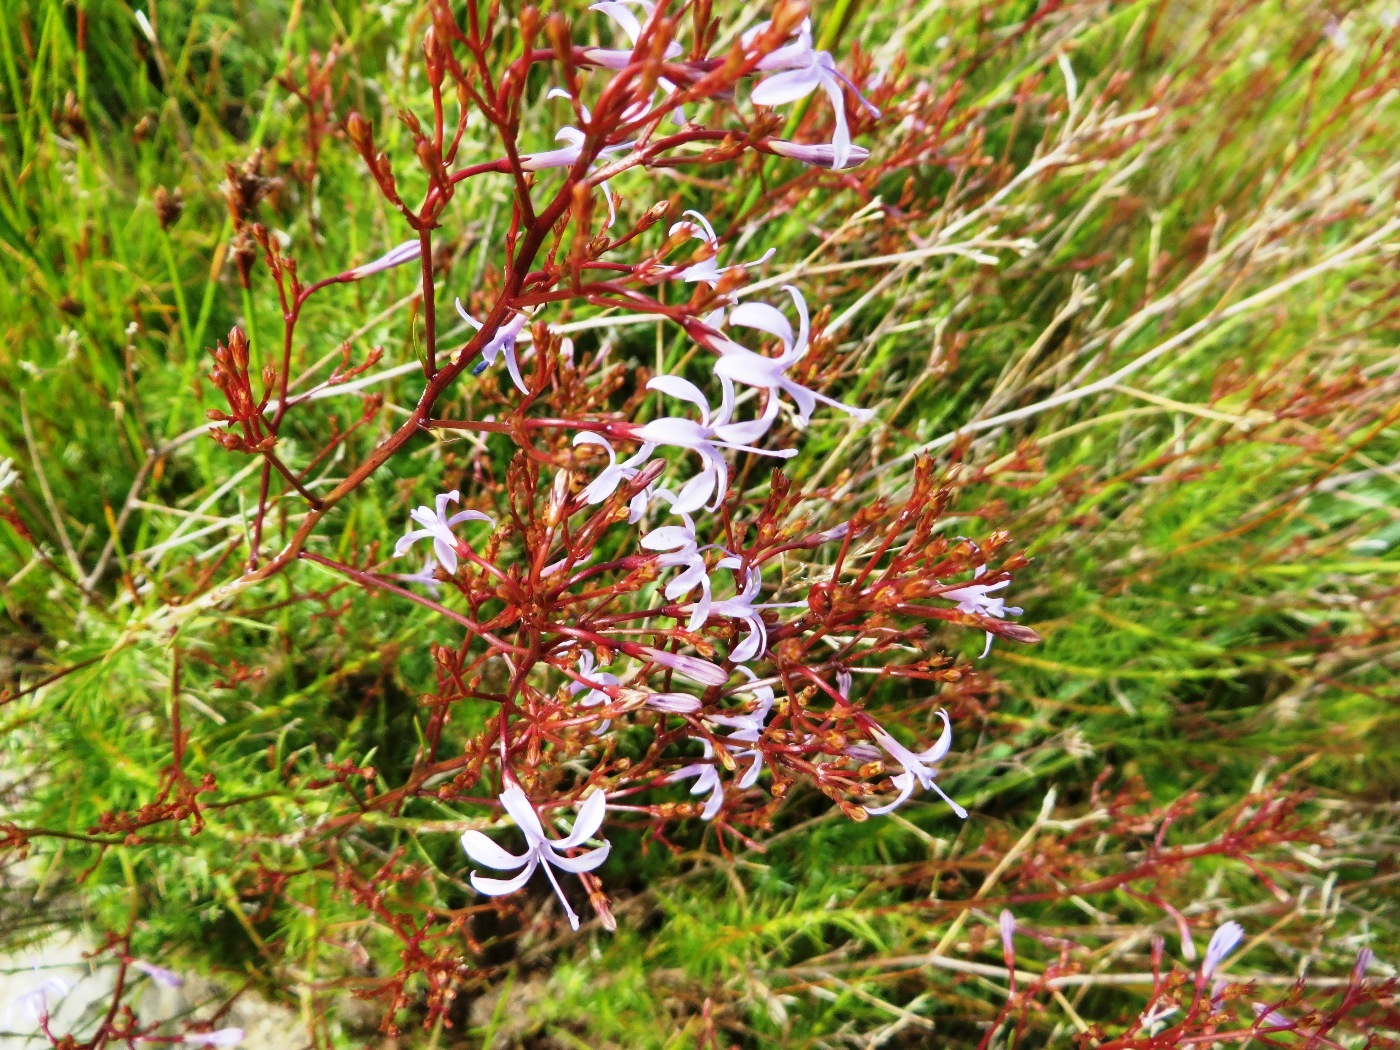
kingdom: Plantae
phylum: Tracheophyta
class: Magnoliopsida
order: Asterales
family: Campanulaceae
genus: Prismatocarpus
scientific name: Prismatocarpus diffusus
